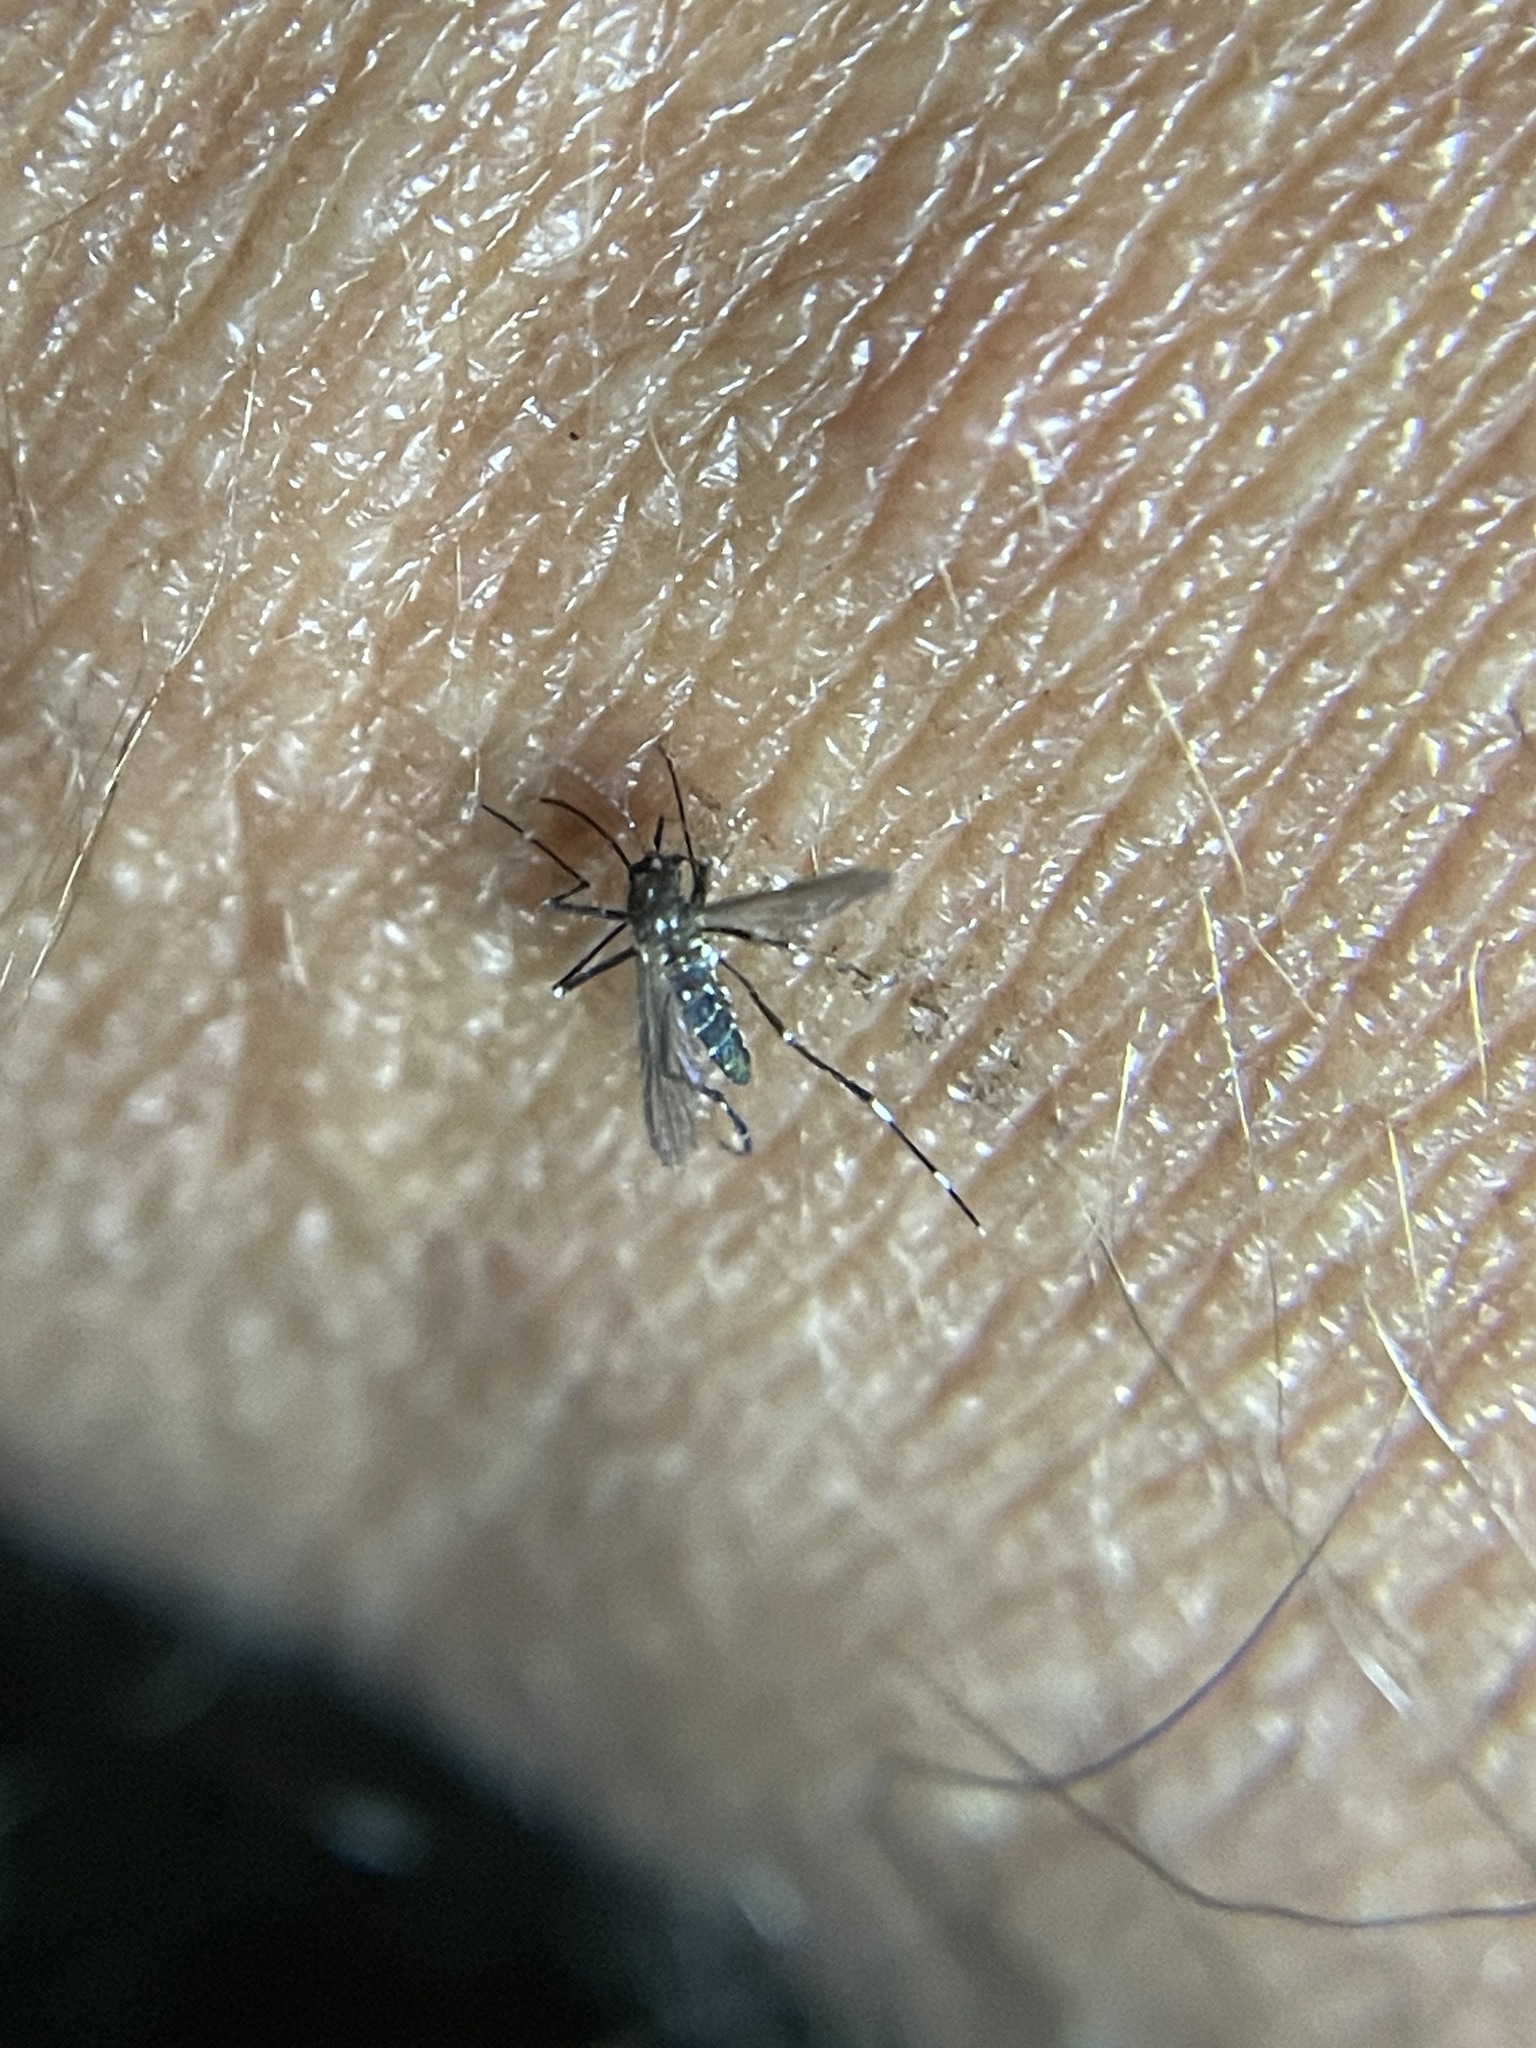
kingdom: Animalia
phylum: Arthropoda
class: Insecta
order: Diptera
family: Culicidae
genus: Aedes
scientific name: Aedes albopictus
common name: Tiger mosquito
